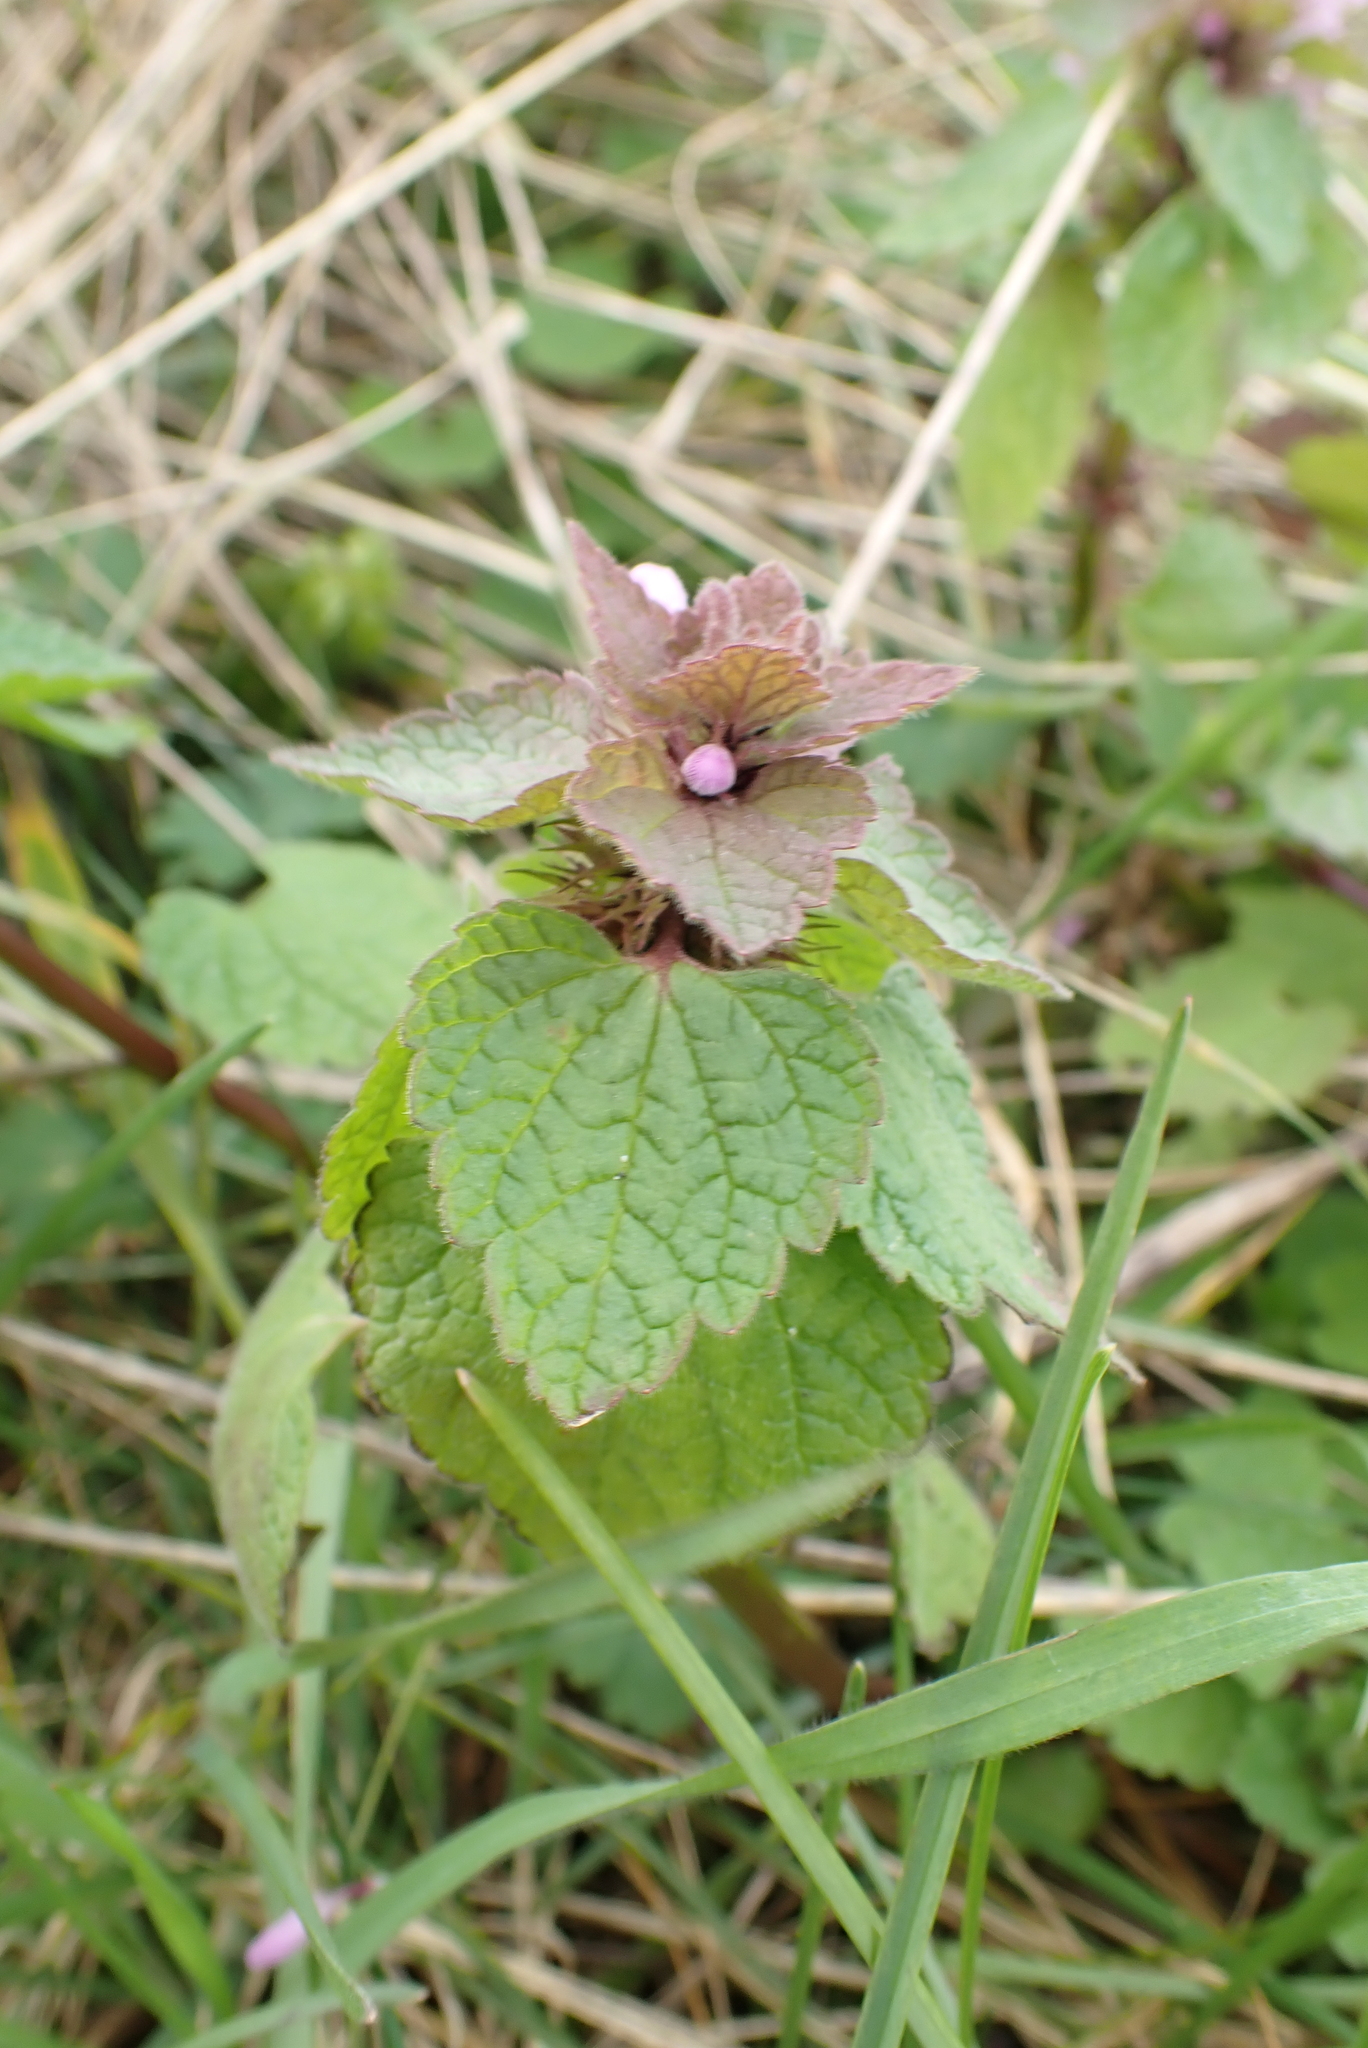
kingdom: Plantae
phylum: Tracheophyta
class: Magnoliopsida
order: Lamiales
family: Lamiaceae
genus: Lamium
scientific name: Lamium purpureum
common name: Red dead-nettle
